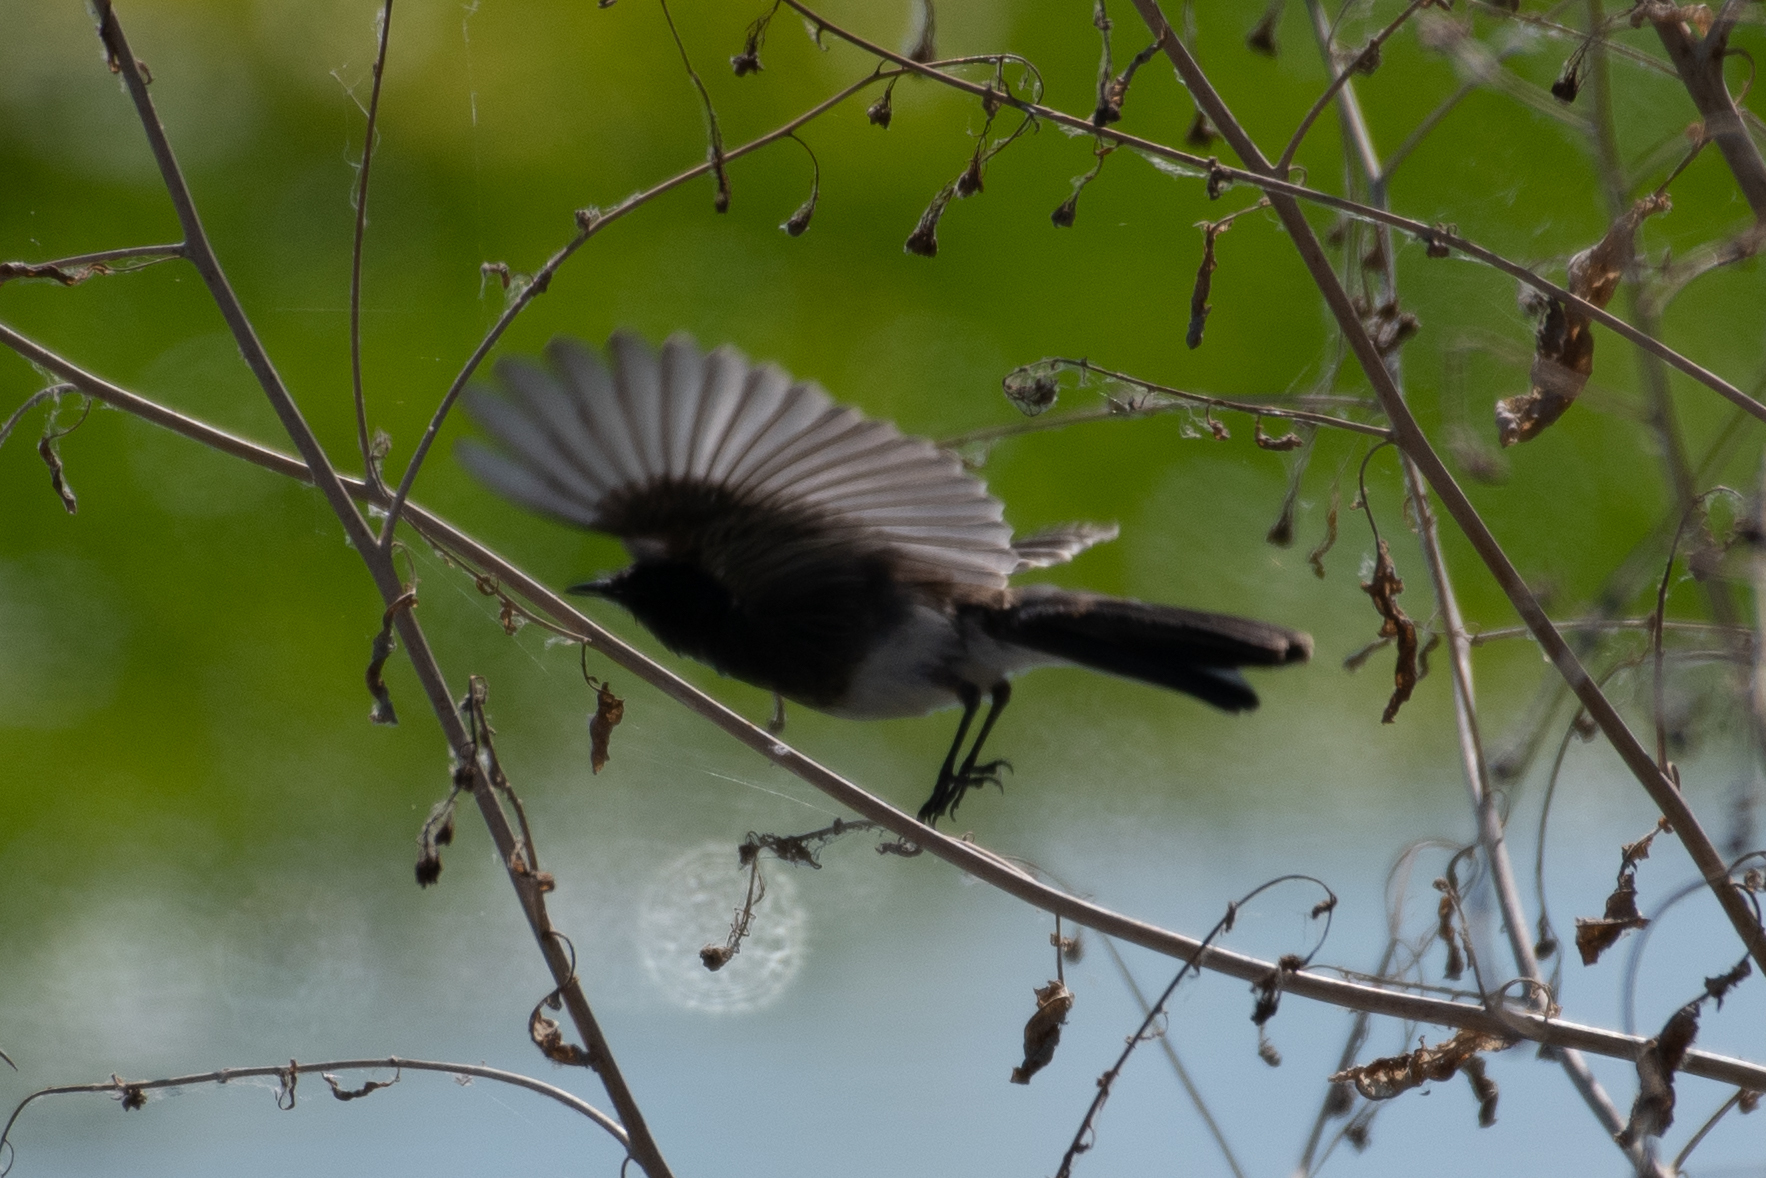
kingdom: Animalia
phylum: Chordata
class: Aves
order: Passeriformes
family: Tyrannidae
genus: Sayornis
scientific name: Sayornis nigricans
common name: Black phoebe
